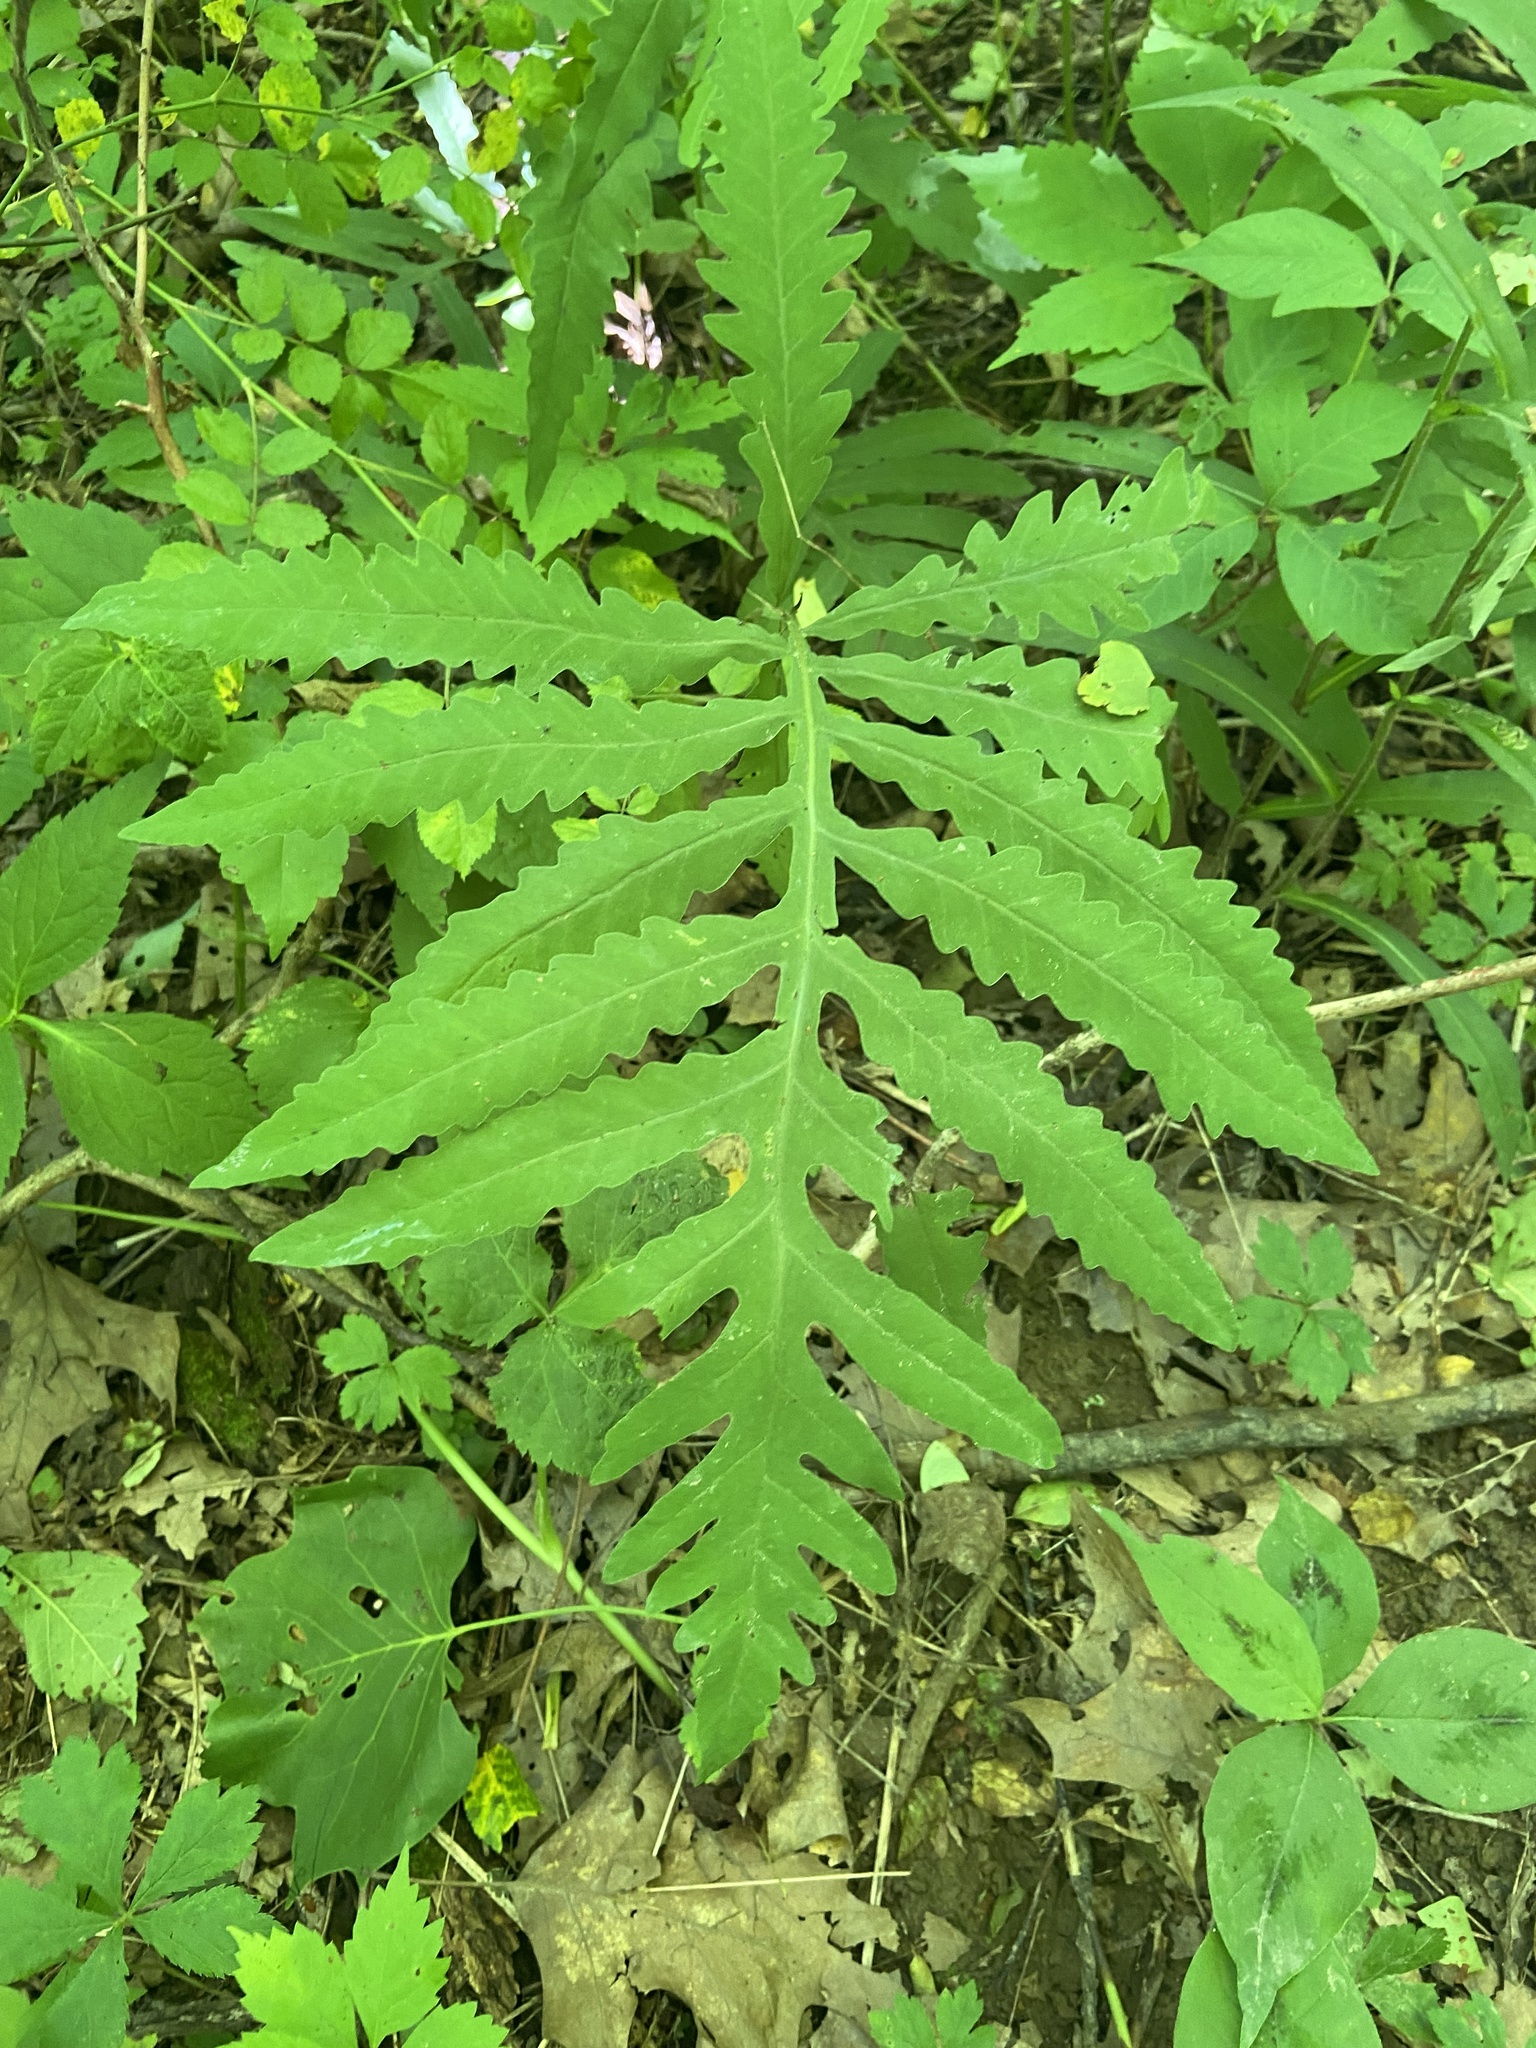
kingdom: Plantae
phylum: Tracheophyta
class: Polypodiopsida
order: Polypodiales
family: Onocleaceae
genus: Onoclea
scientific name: Onoclea sensibilis
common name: Sensitive fern
